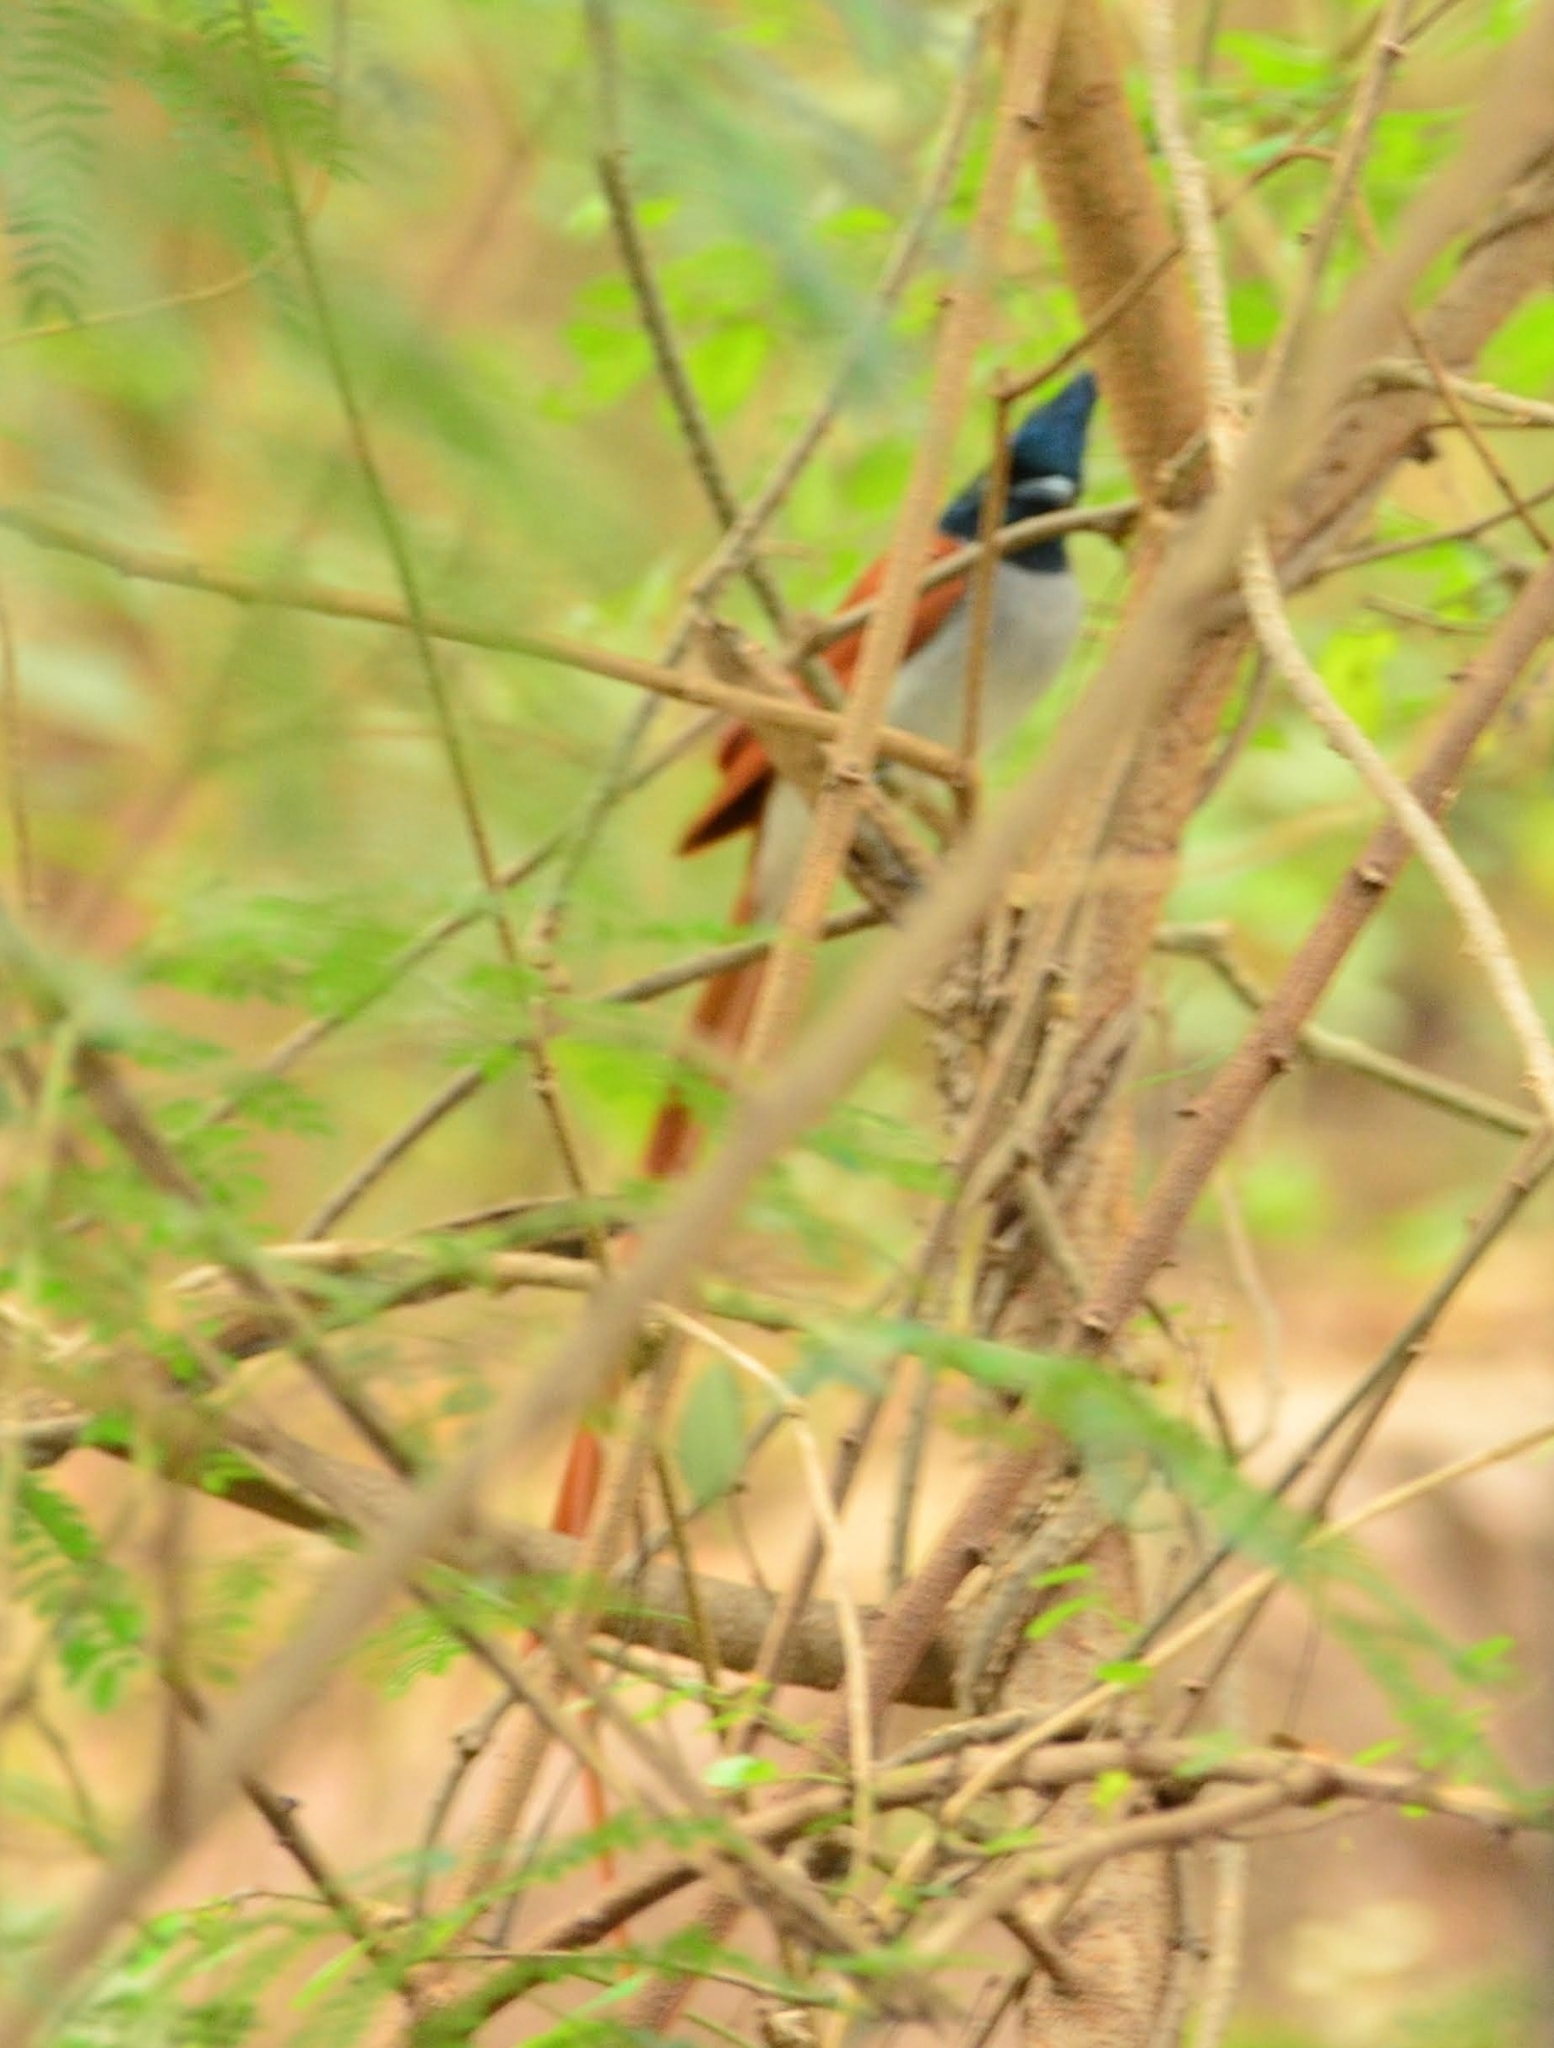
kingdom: Animalia
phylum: Chordata
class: Aves
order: Passeriformes
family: Monarchidae
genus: Terpsiphone
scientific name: Terpsiphone paradisi
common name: Indian paradise flycatcher
